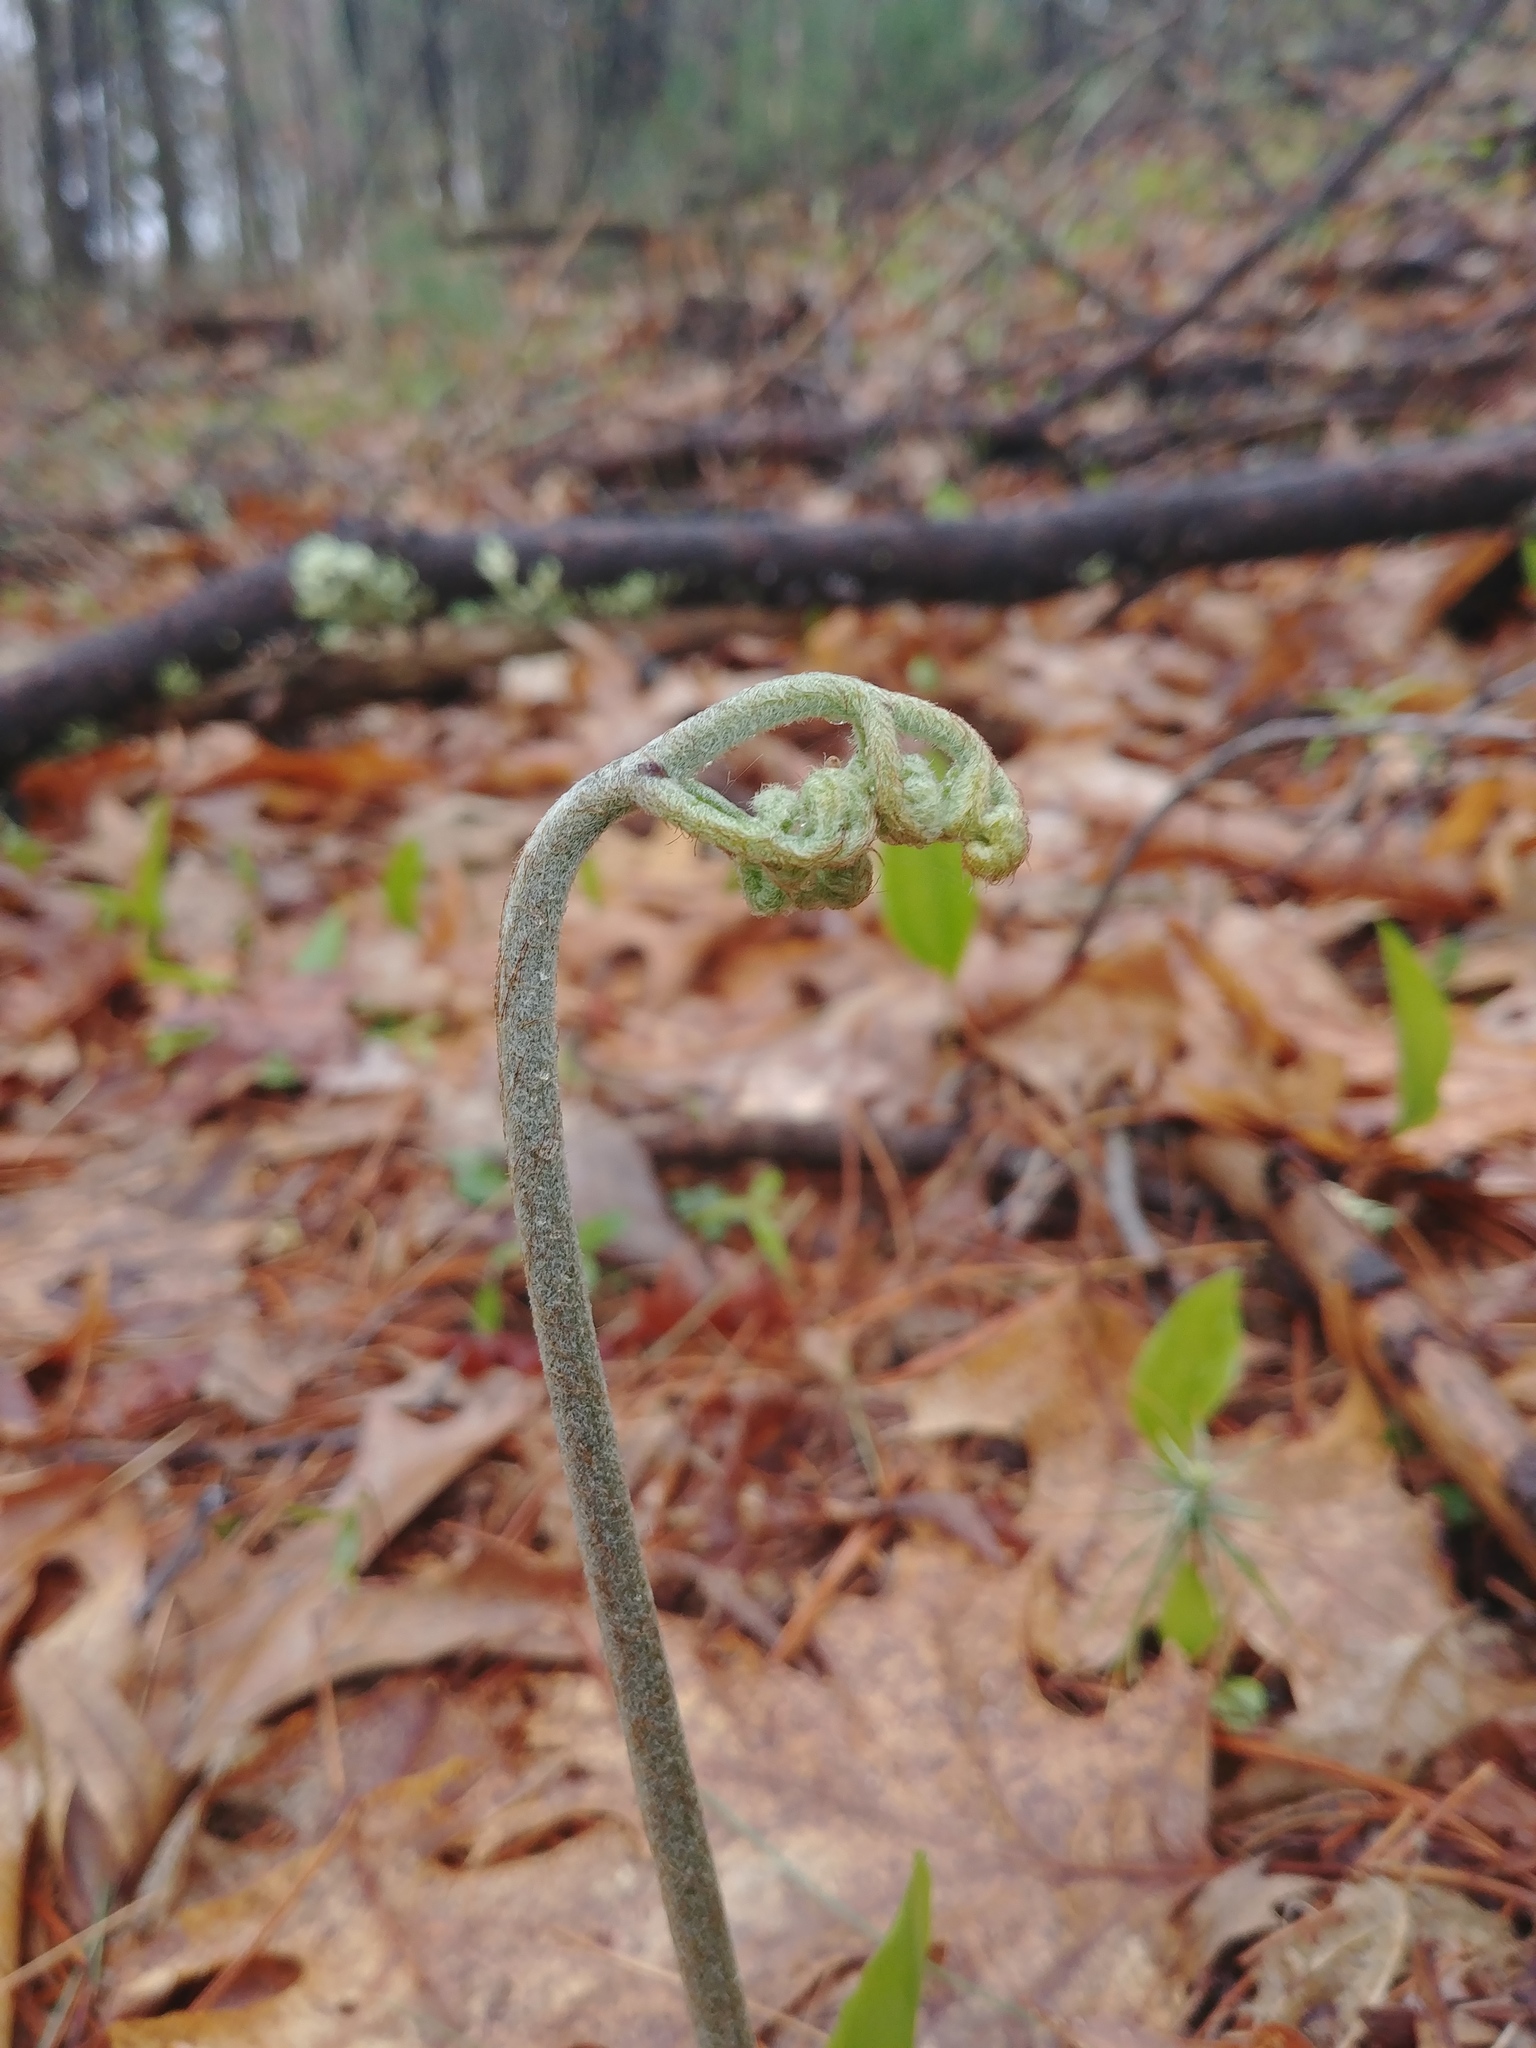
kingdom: Plantae
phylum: Tracheophyta
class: Polypodiopsida
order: Polypodiales
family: Dennstaedtiaceae
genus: Pteridium
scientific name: Pteridium aquilinum
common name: Bracken
